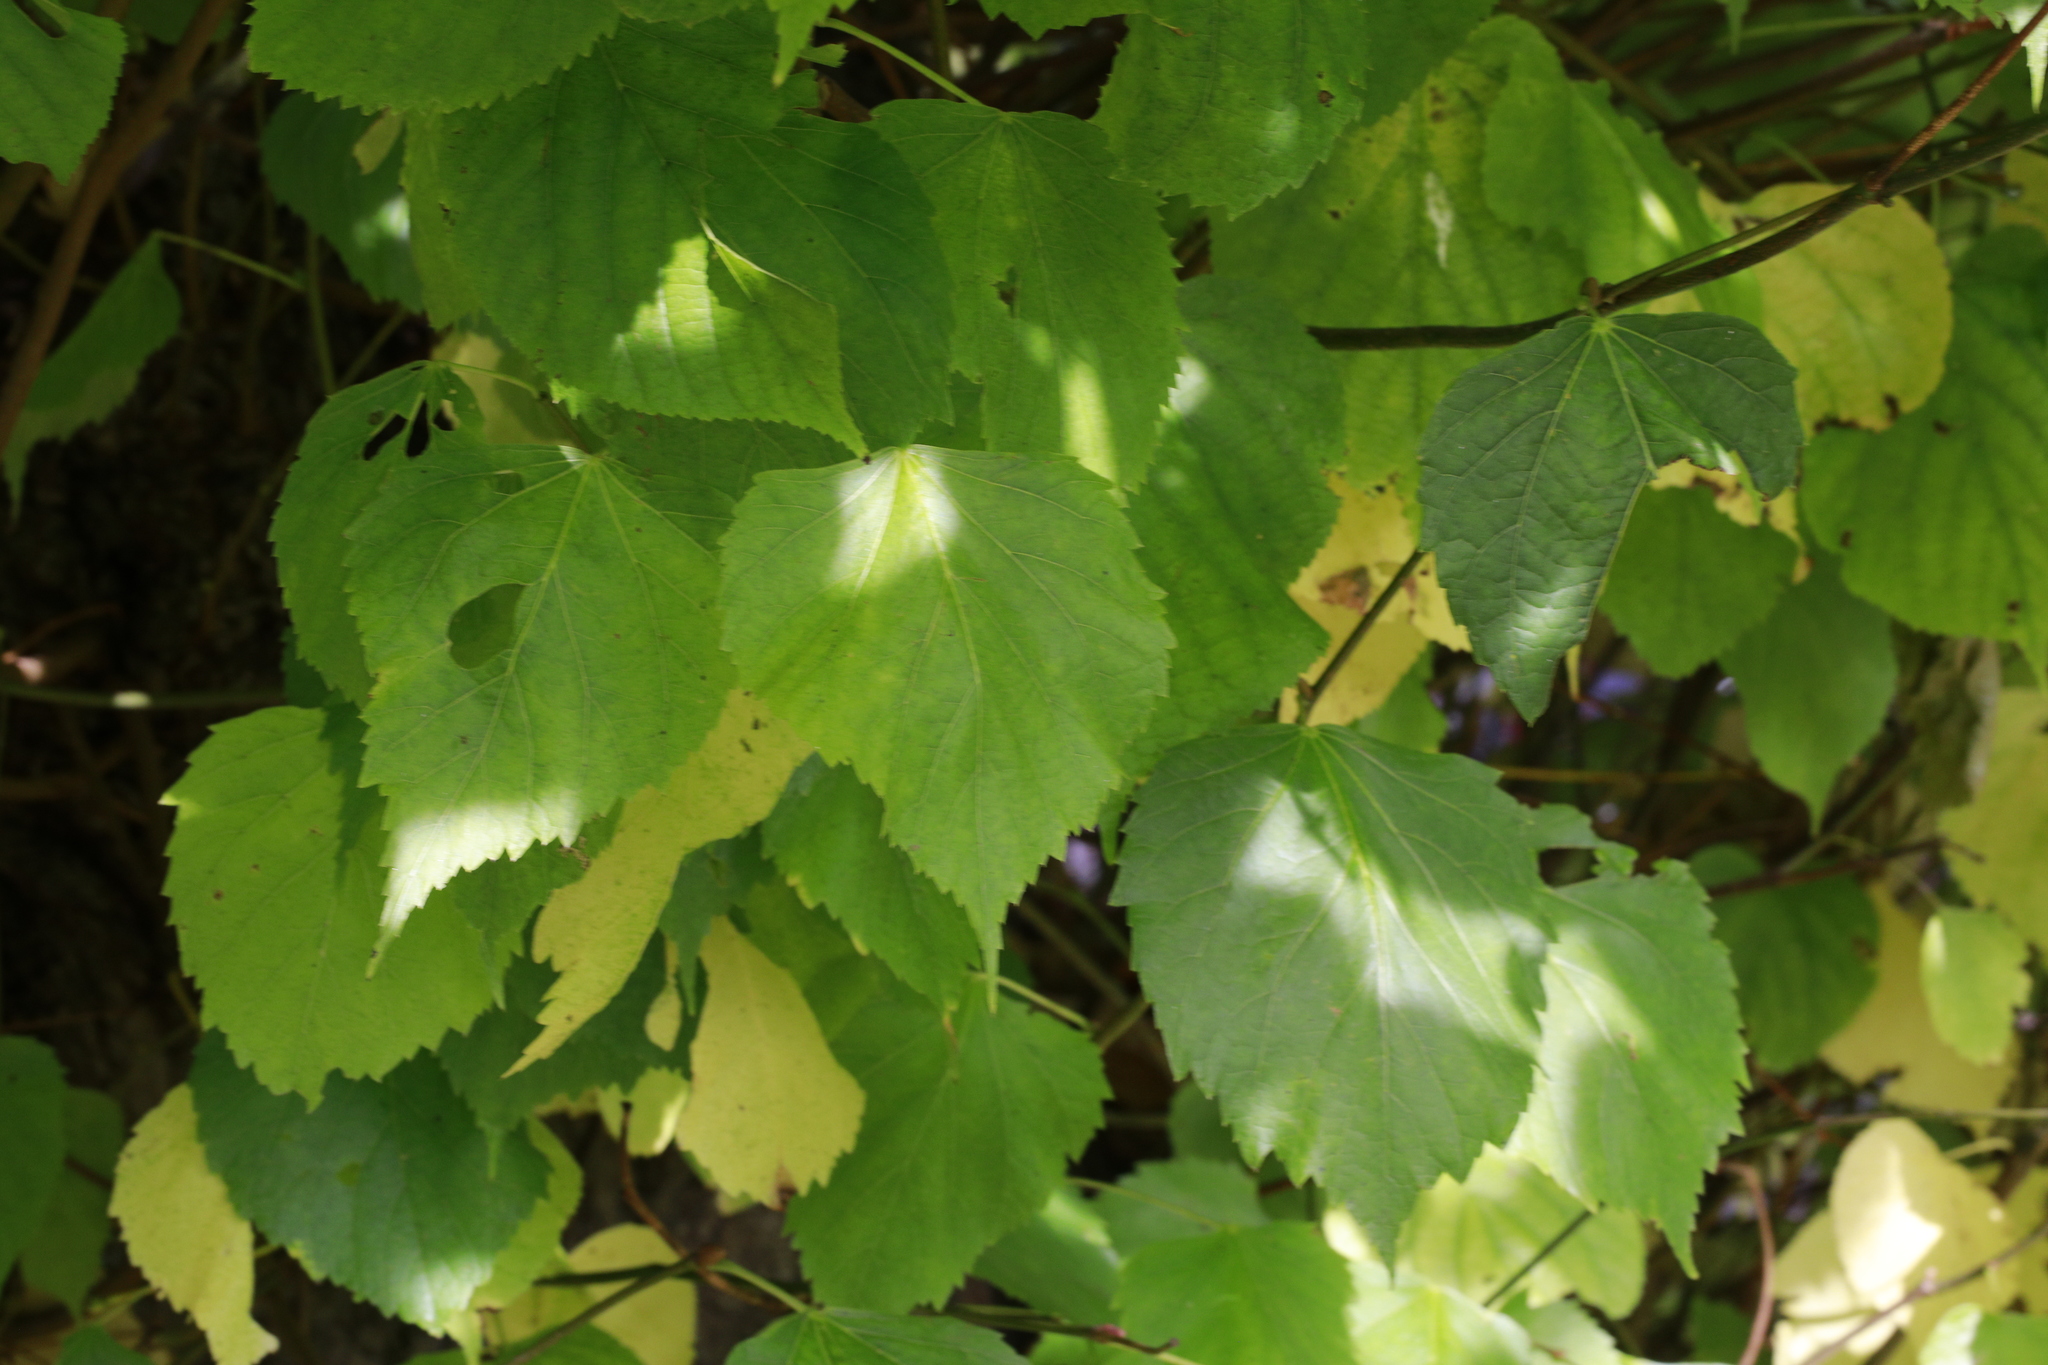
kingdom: Plantae
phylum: Tracheophyta
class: Magnoliopsida
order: Malvales
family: Malvaceae
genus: Tilia
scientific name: Tilia europaea
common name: European linden
